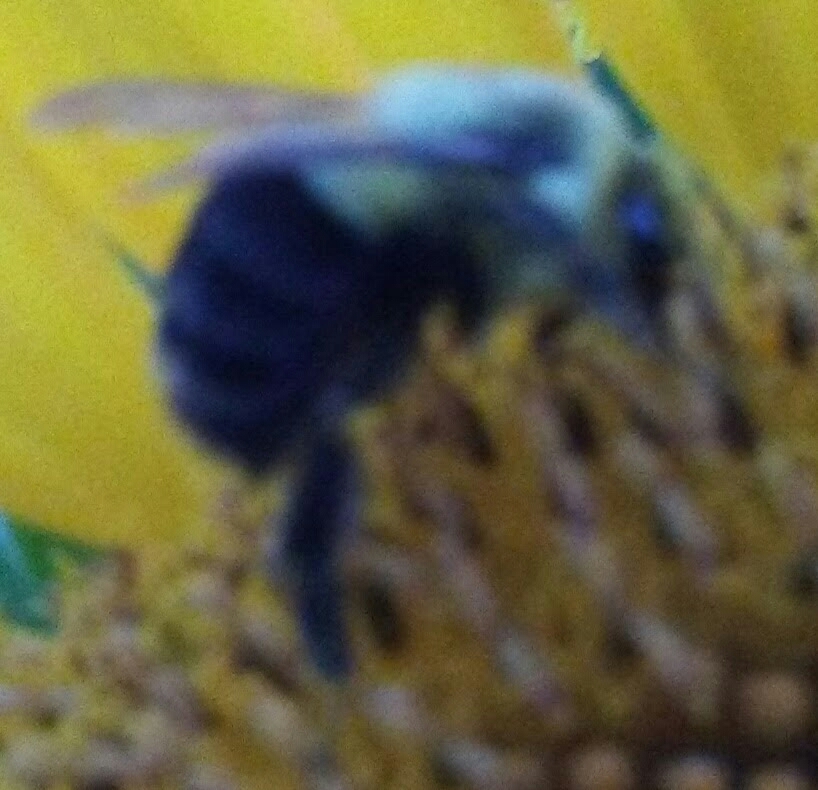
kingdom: Animalia
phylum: Arthropoda
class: Insecta
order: Hymenoptera
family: Apidae
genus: Bombus
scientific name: Bombus impatiens
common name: Common eastern bumble bee
